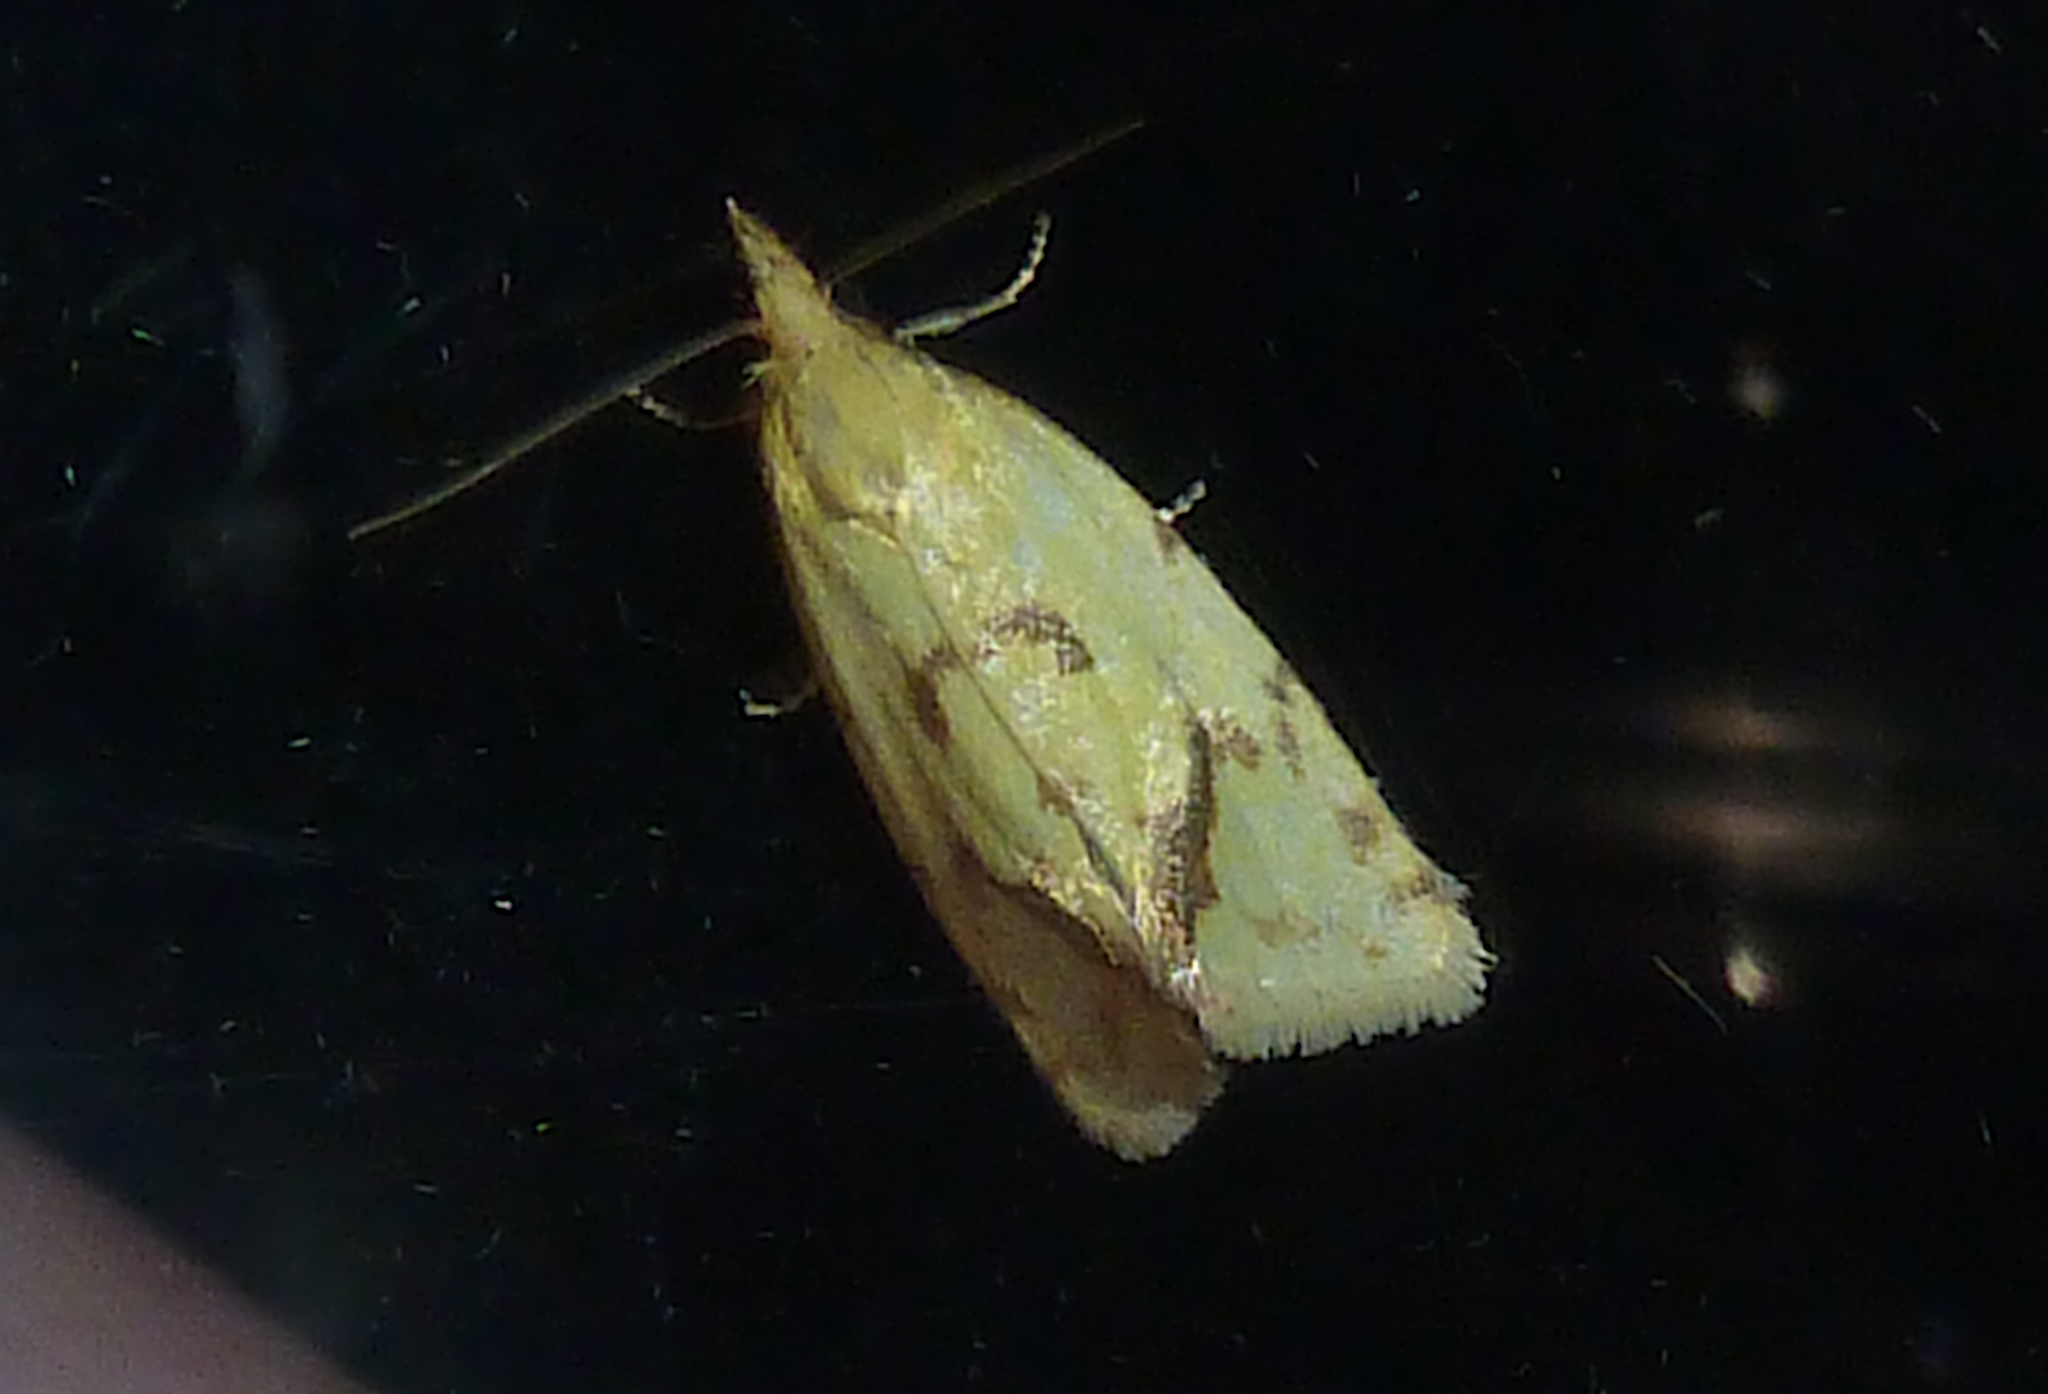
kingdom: Animalia
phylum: Arthropoda
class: Insecta
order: Lepidoptera
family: Tortricidae
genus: Agapeta
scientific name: Agapeta hamana
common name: Common yellow conch
